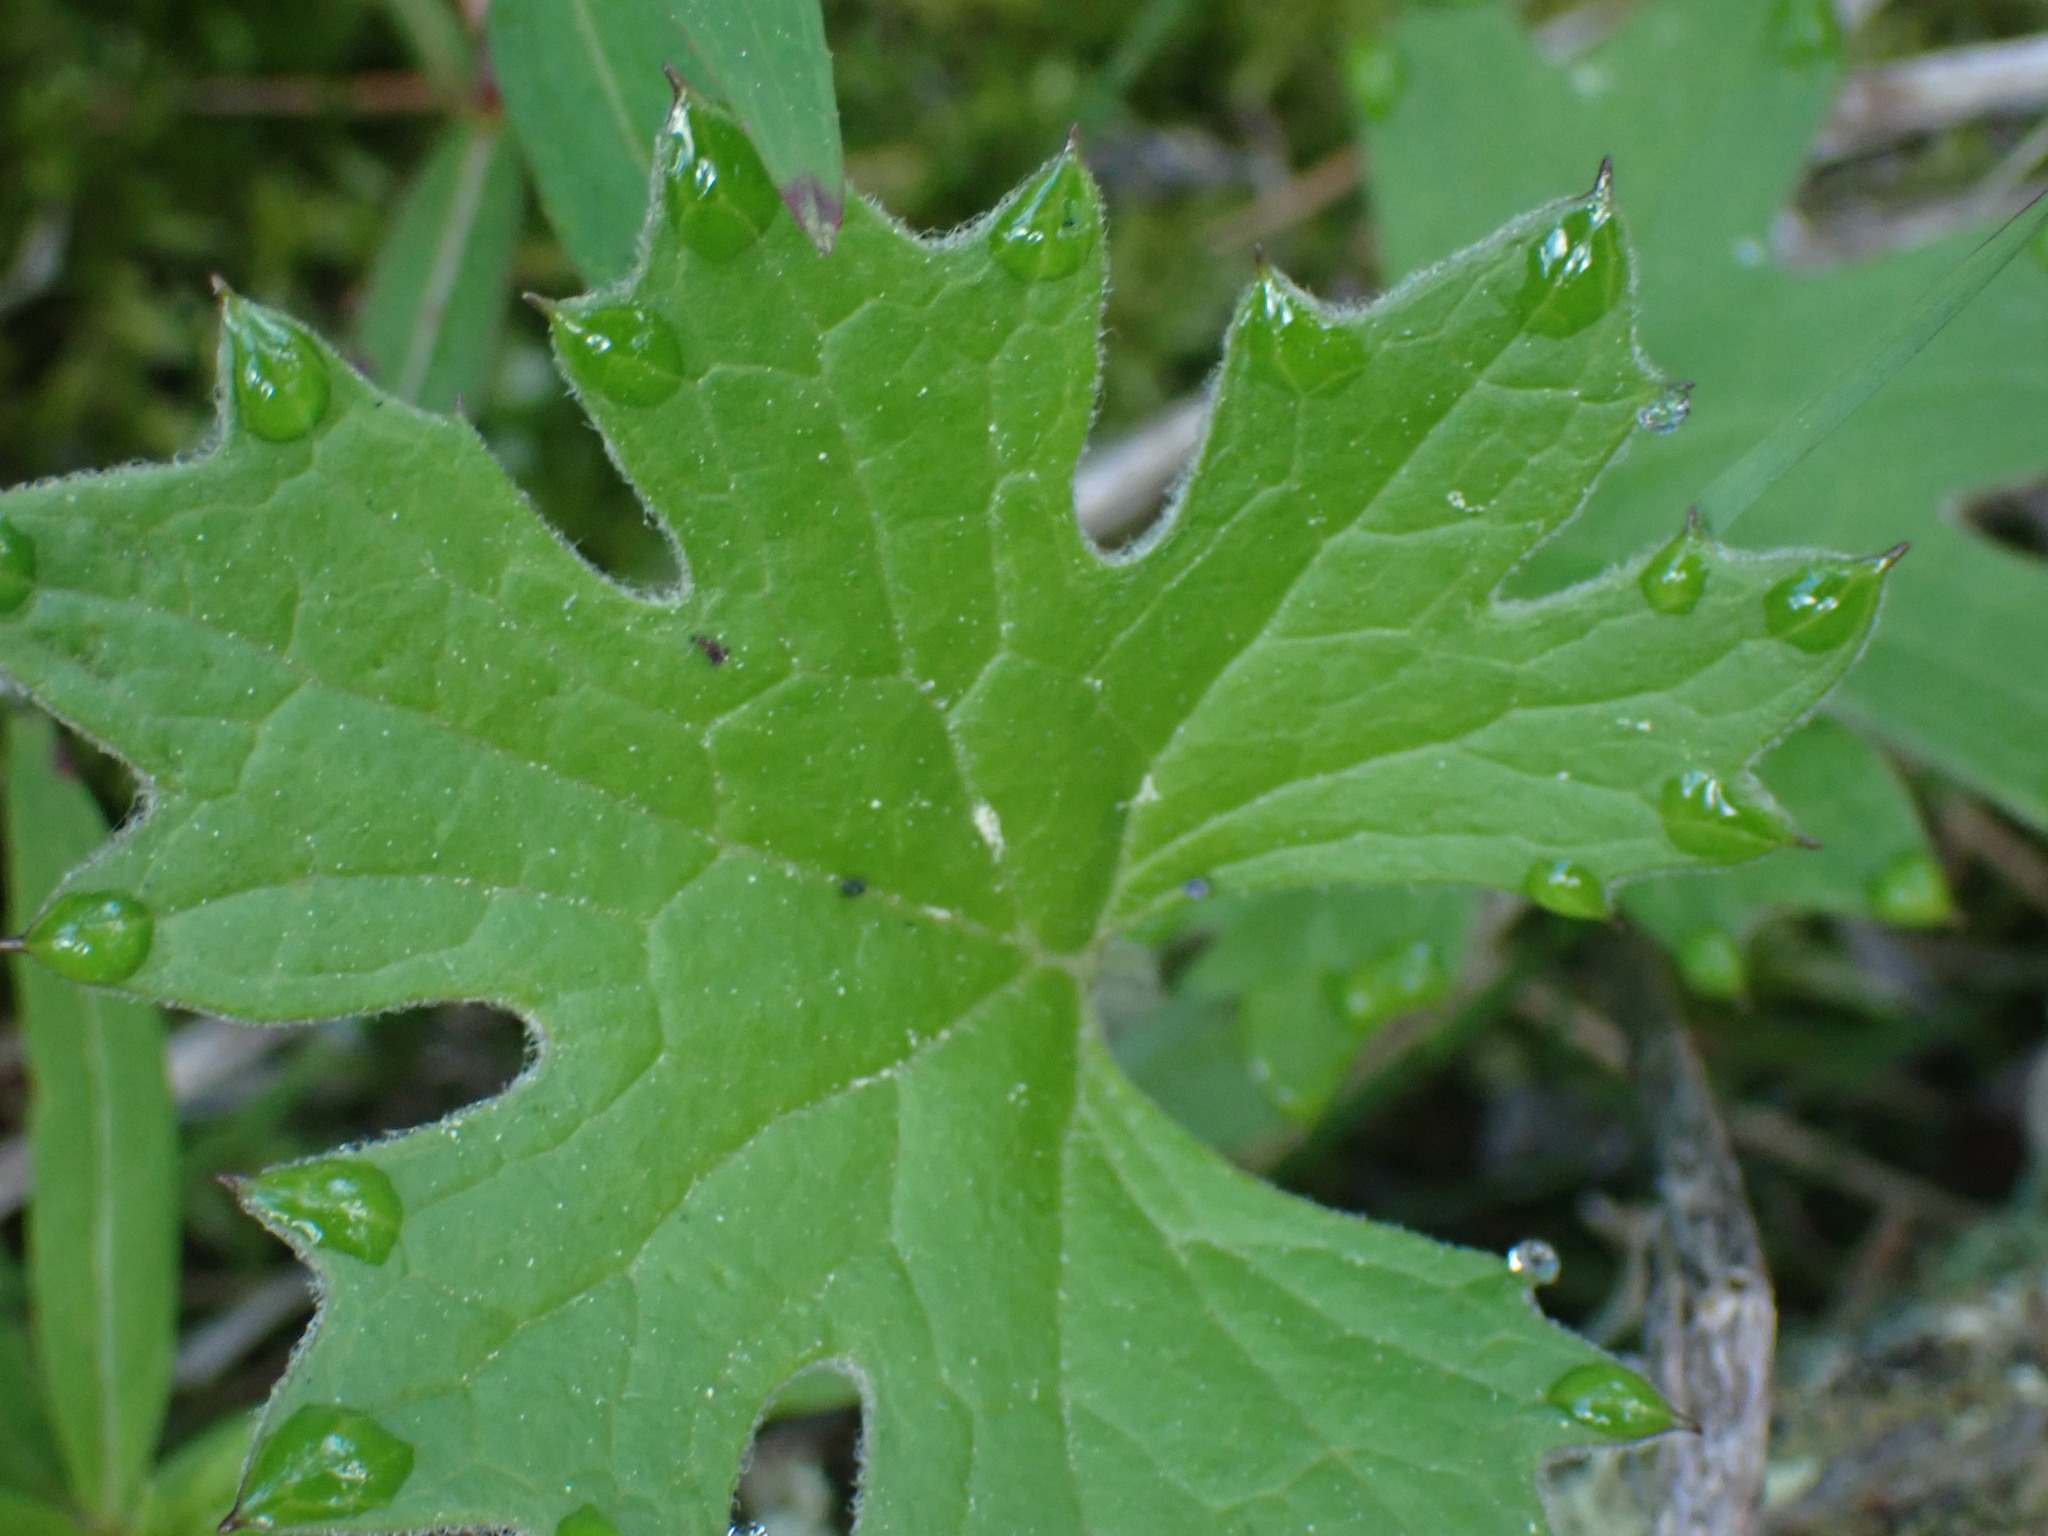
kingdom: Plantae
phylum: Tracheophyta
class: Magnoliopsida
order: Asterales
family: Asteraceae
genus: Petasites
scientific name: Petasites frigidus
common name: Arctic butterbur
